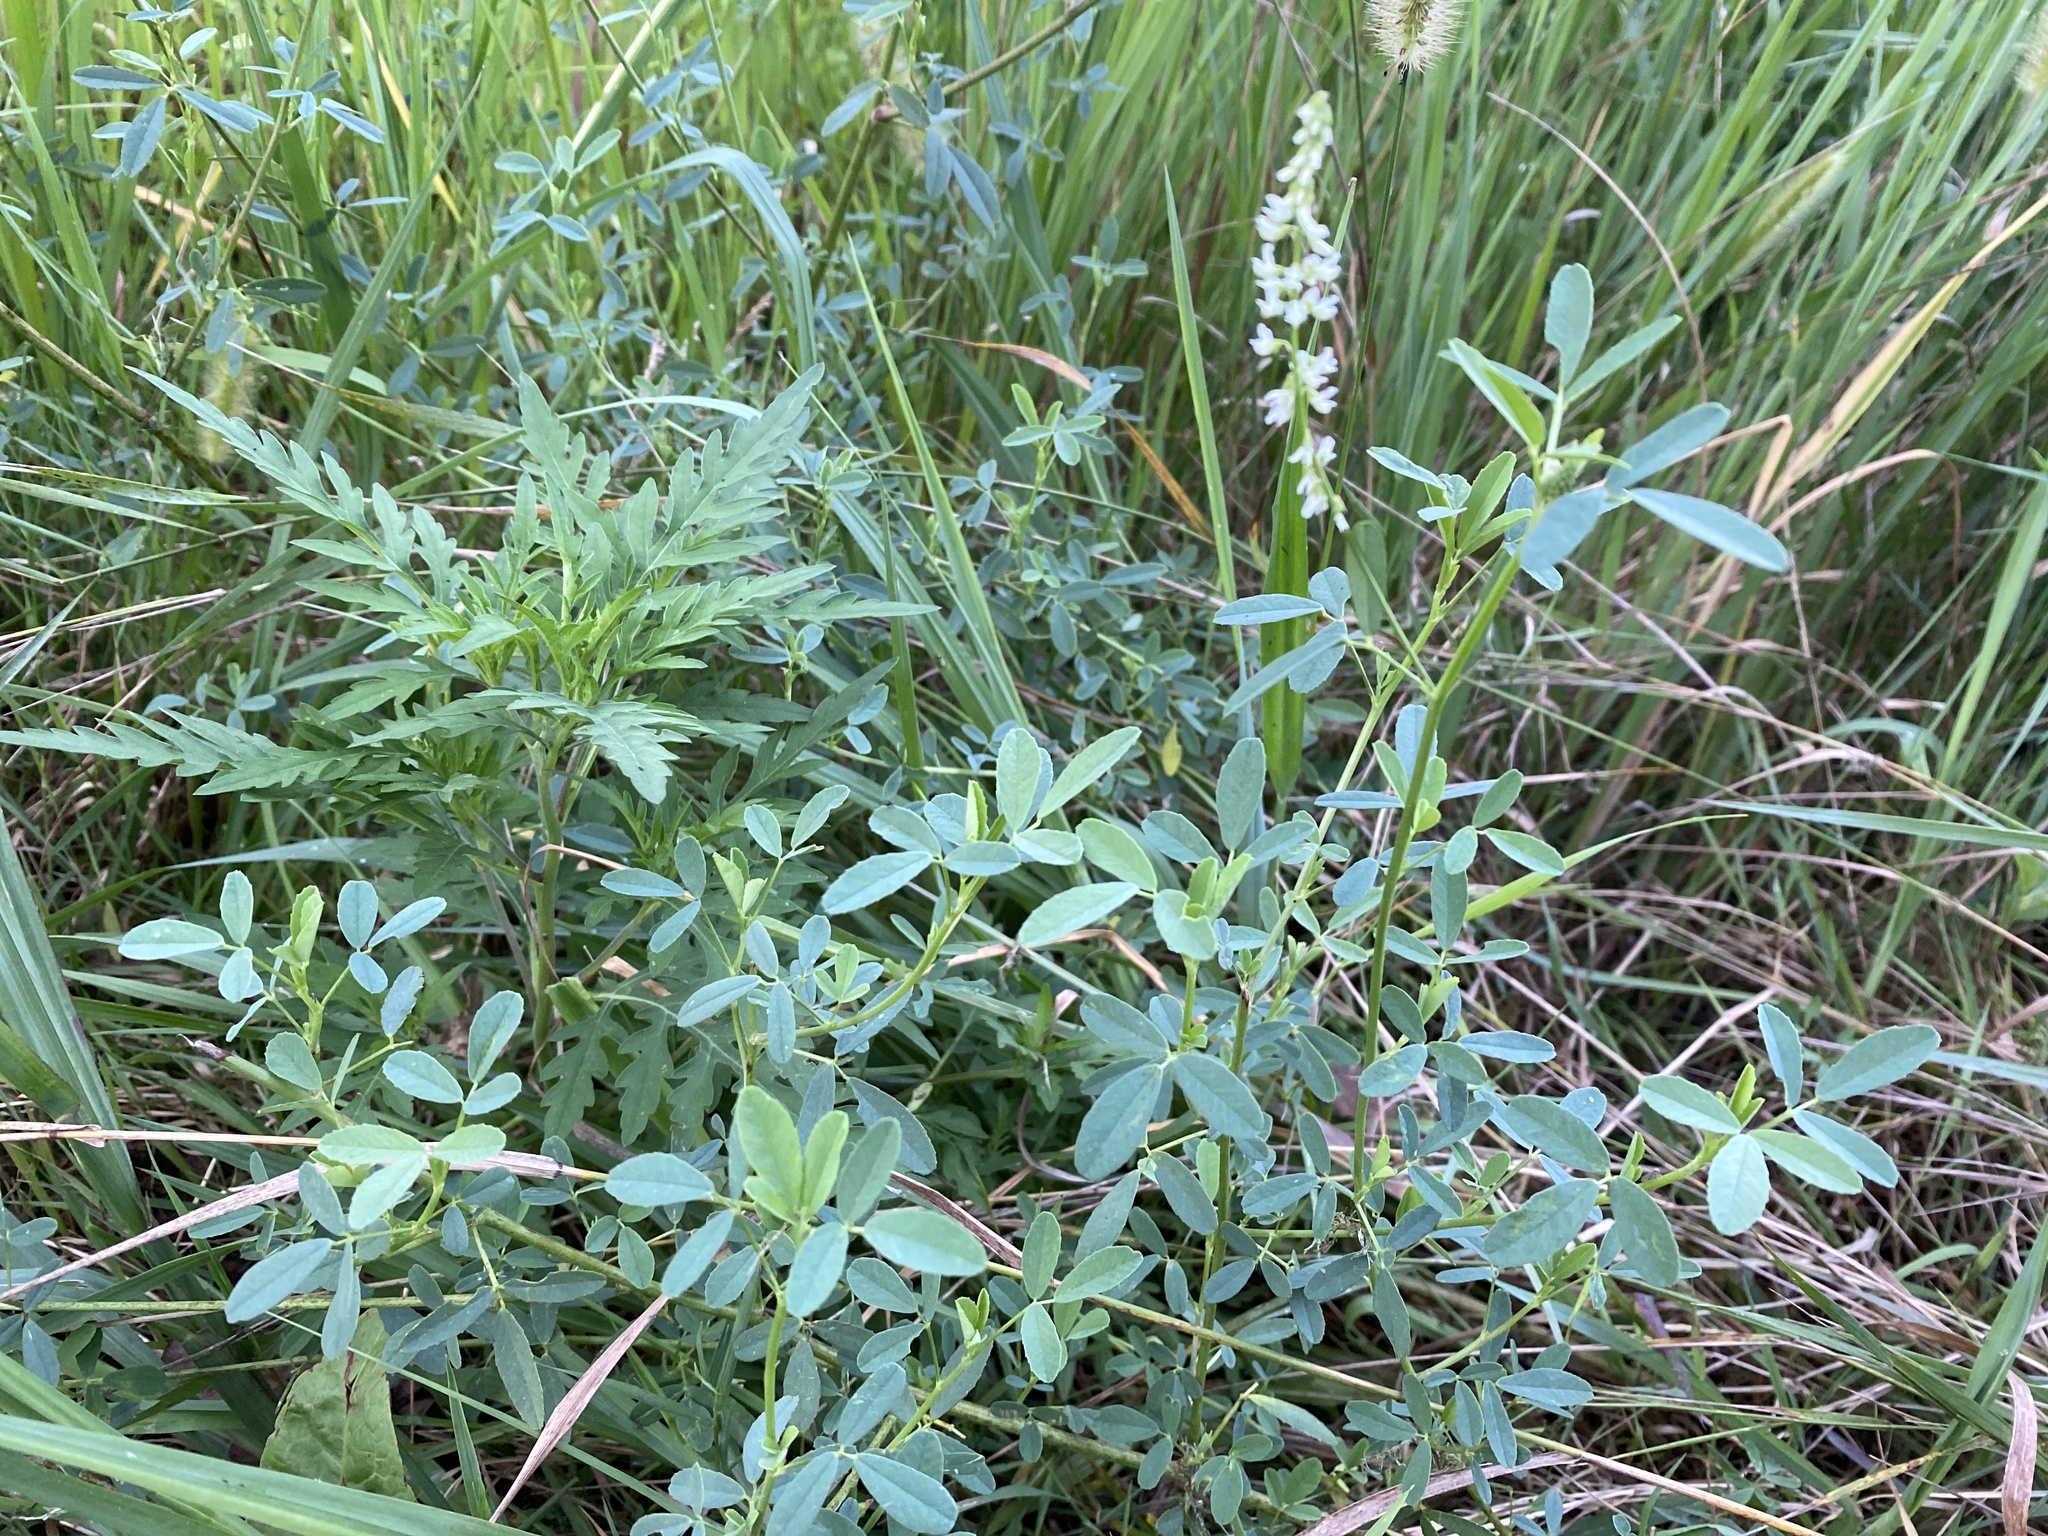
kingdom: Plantae
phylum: Tracheophyta
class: Magnoliopsida
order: Fabales
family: Fabaceae
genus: Melilotus
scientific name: Melilotus albus
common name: White melilot
